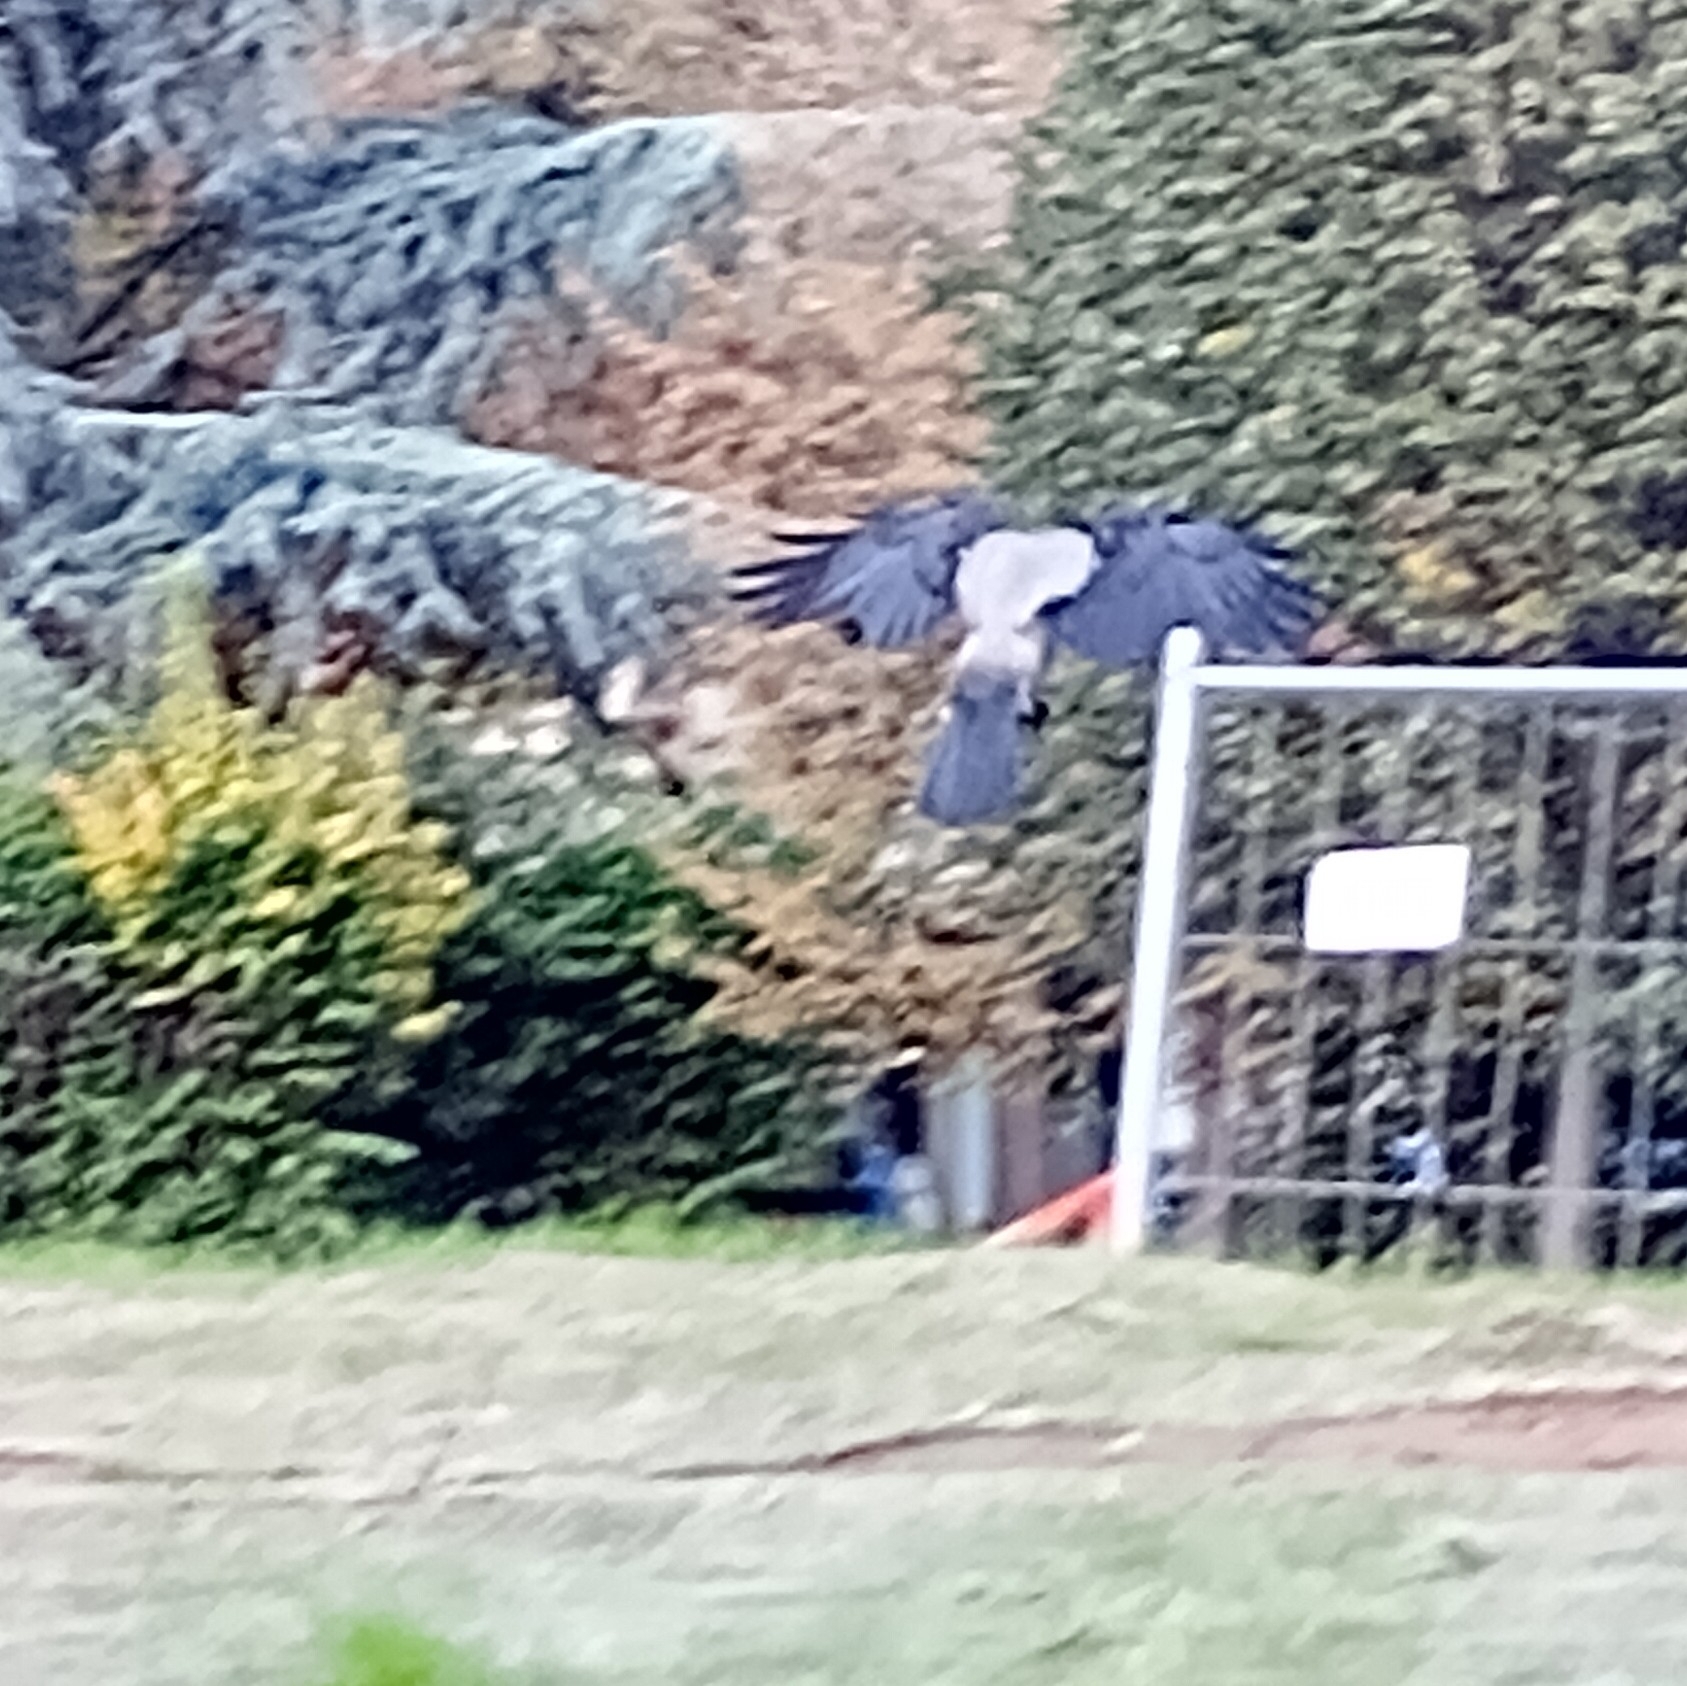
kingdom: Animalia
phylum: Chordata
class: Aves
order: Passeriformes
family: Corvidae
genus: Corvus
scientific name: Corvus cornix
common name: Hooded crow
